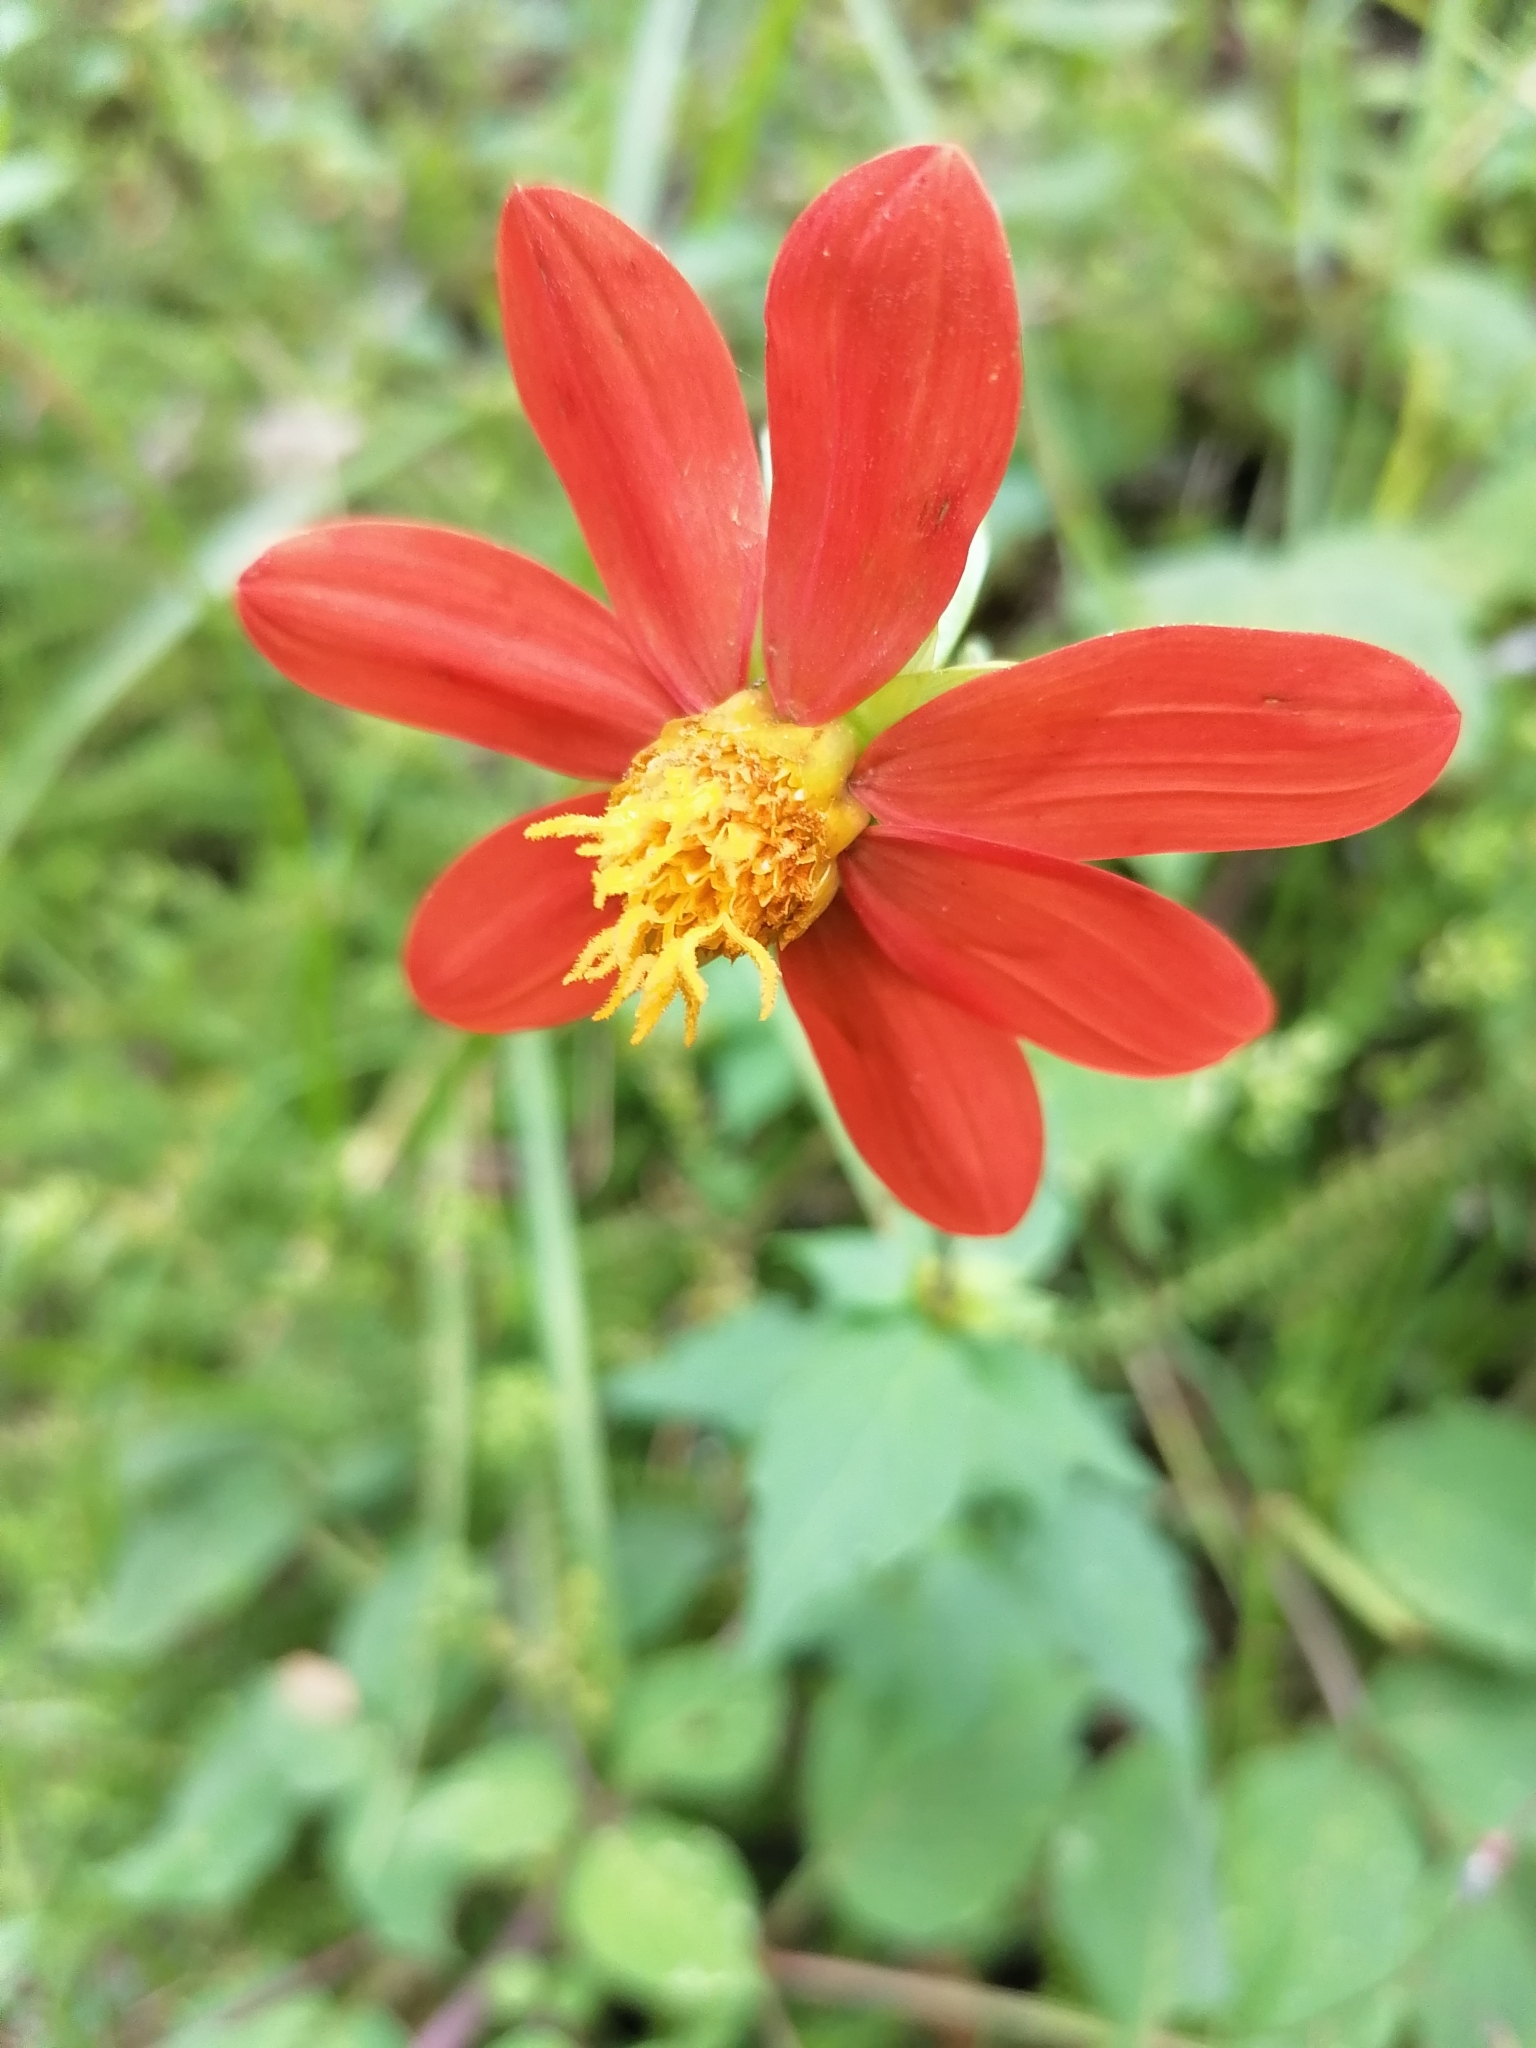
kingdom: Plantae
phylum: Tracheophyta
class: Magnoliopsida
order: Asterales
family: Asteraceae
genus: Dahlia
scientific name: Dahlia coccinea
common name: Red dahlia
